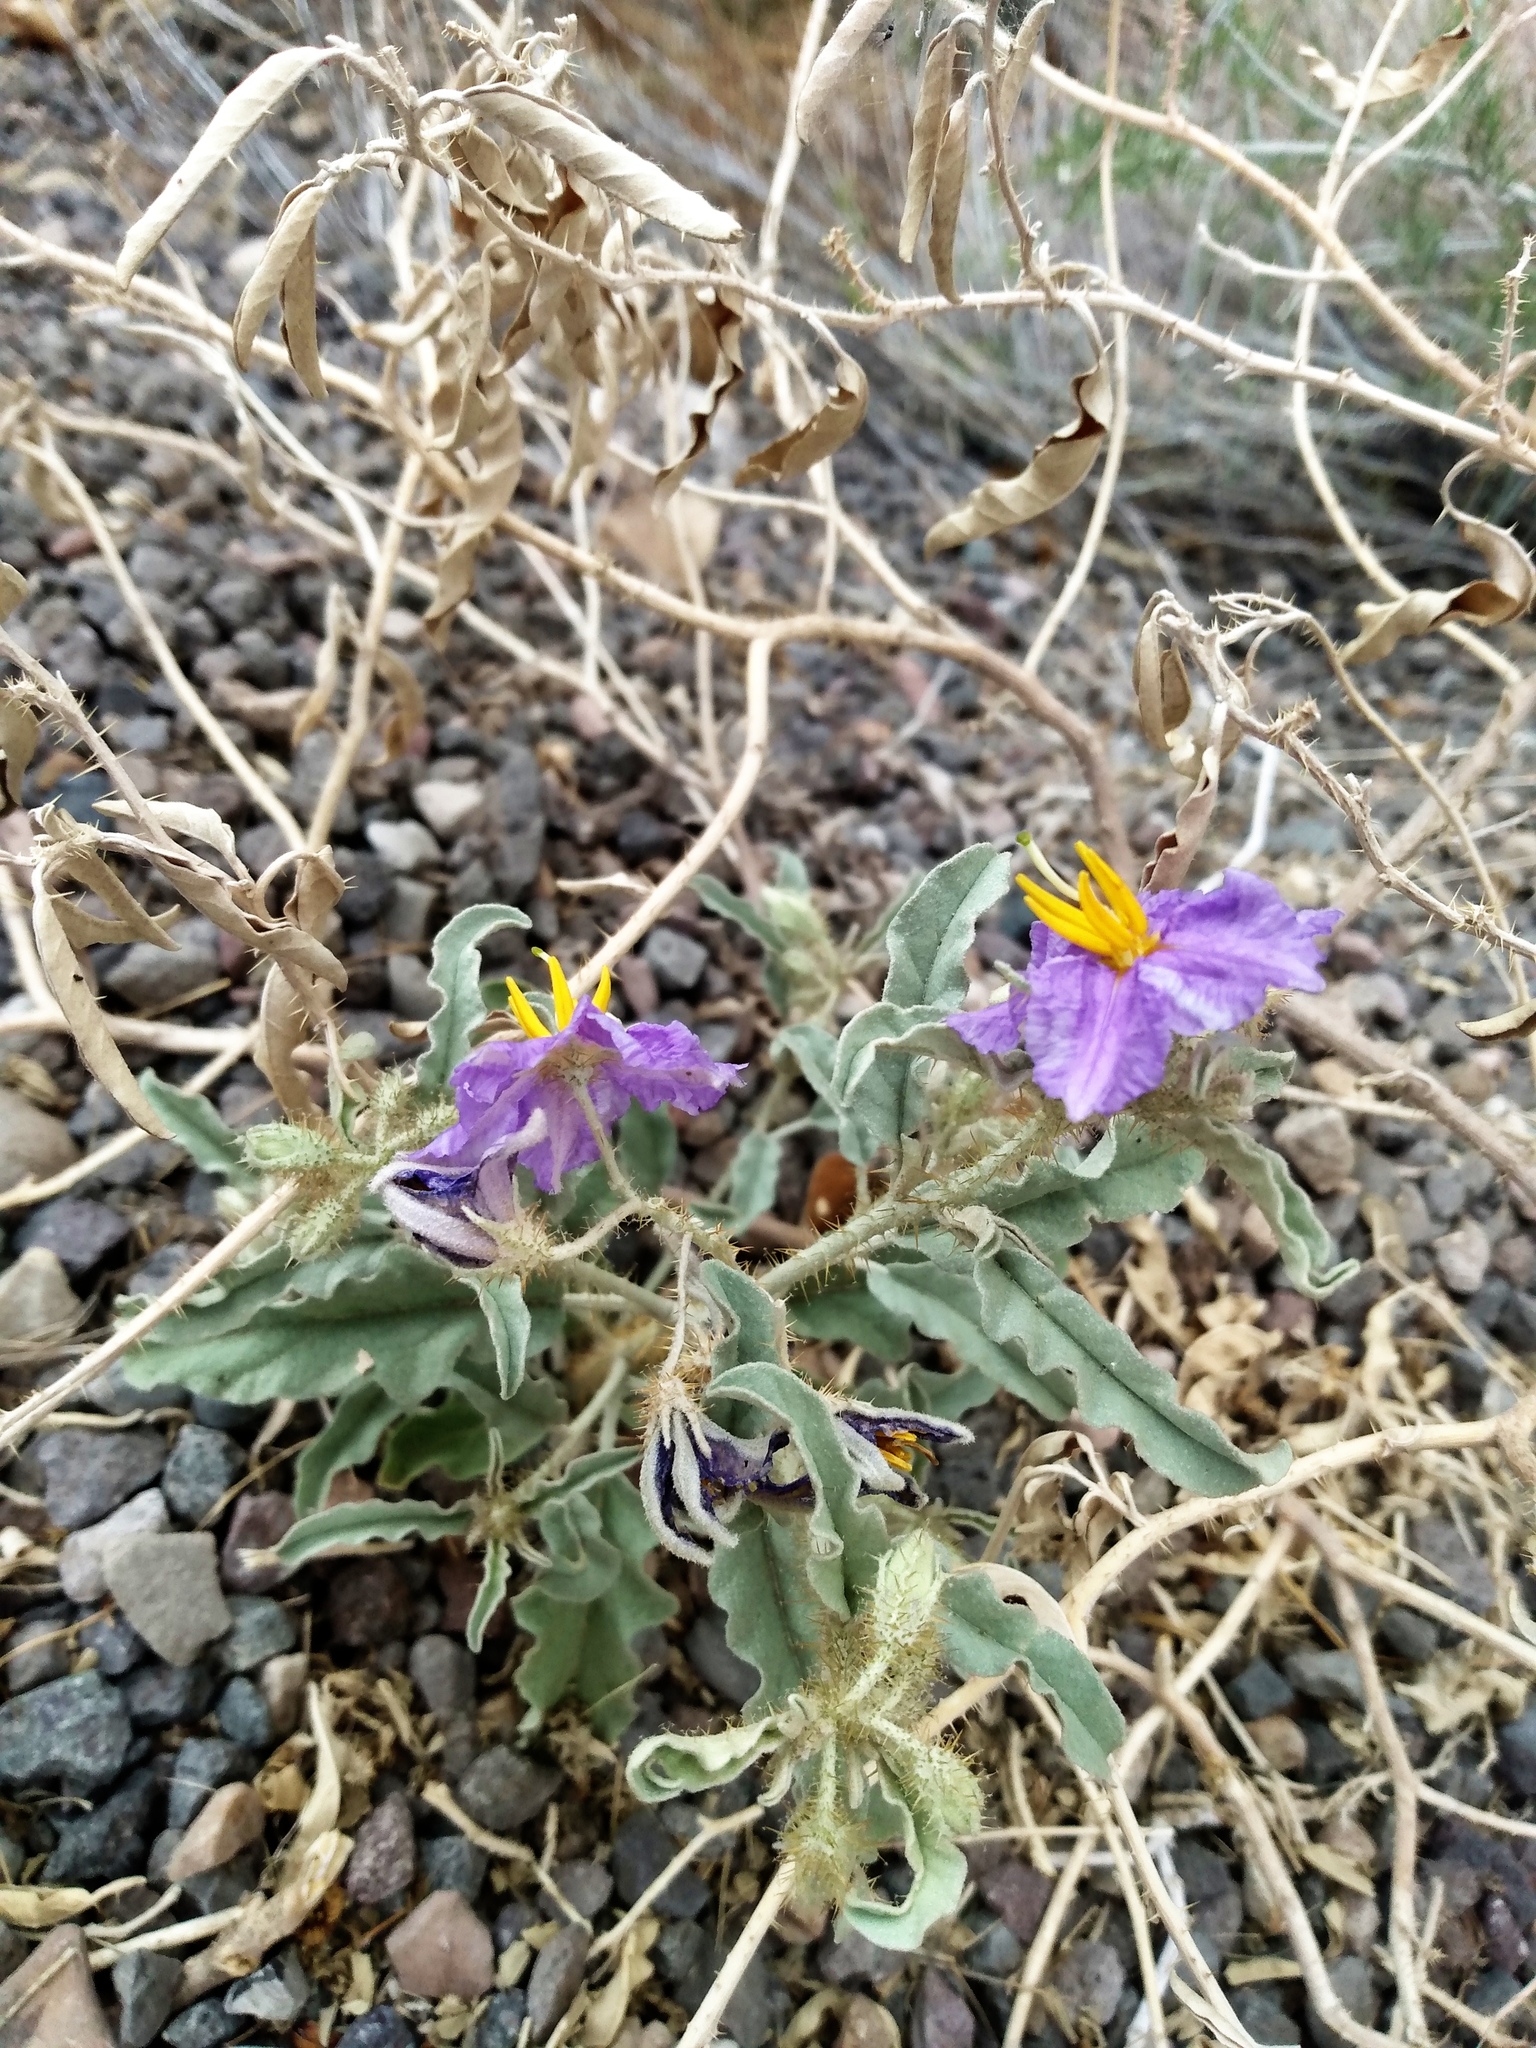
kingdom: Plantae
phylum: Tracheophyta
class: Magnoliopsida
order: Solanales
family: Solanaceae
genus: Solanum
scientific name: Solanum elaeagnifolium
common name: Silverleaf nightshade
